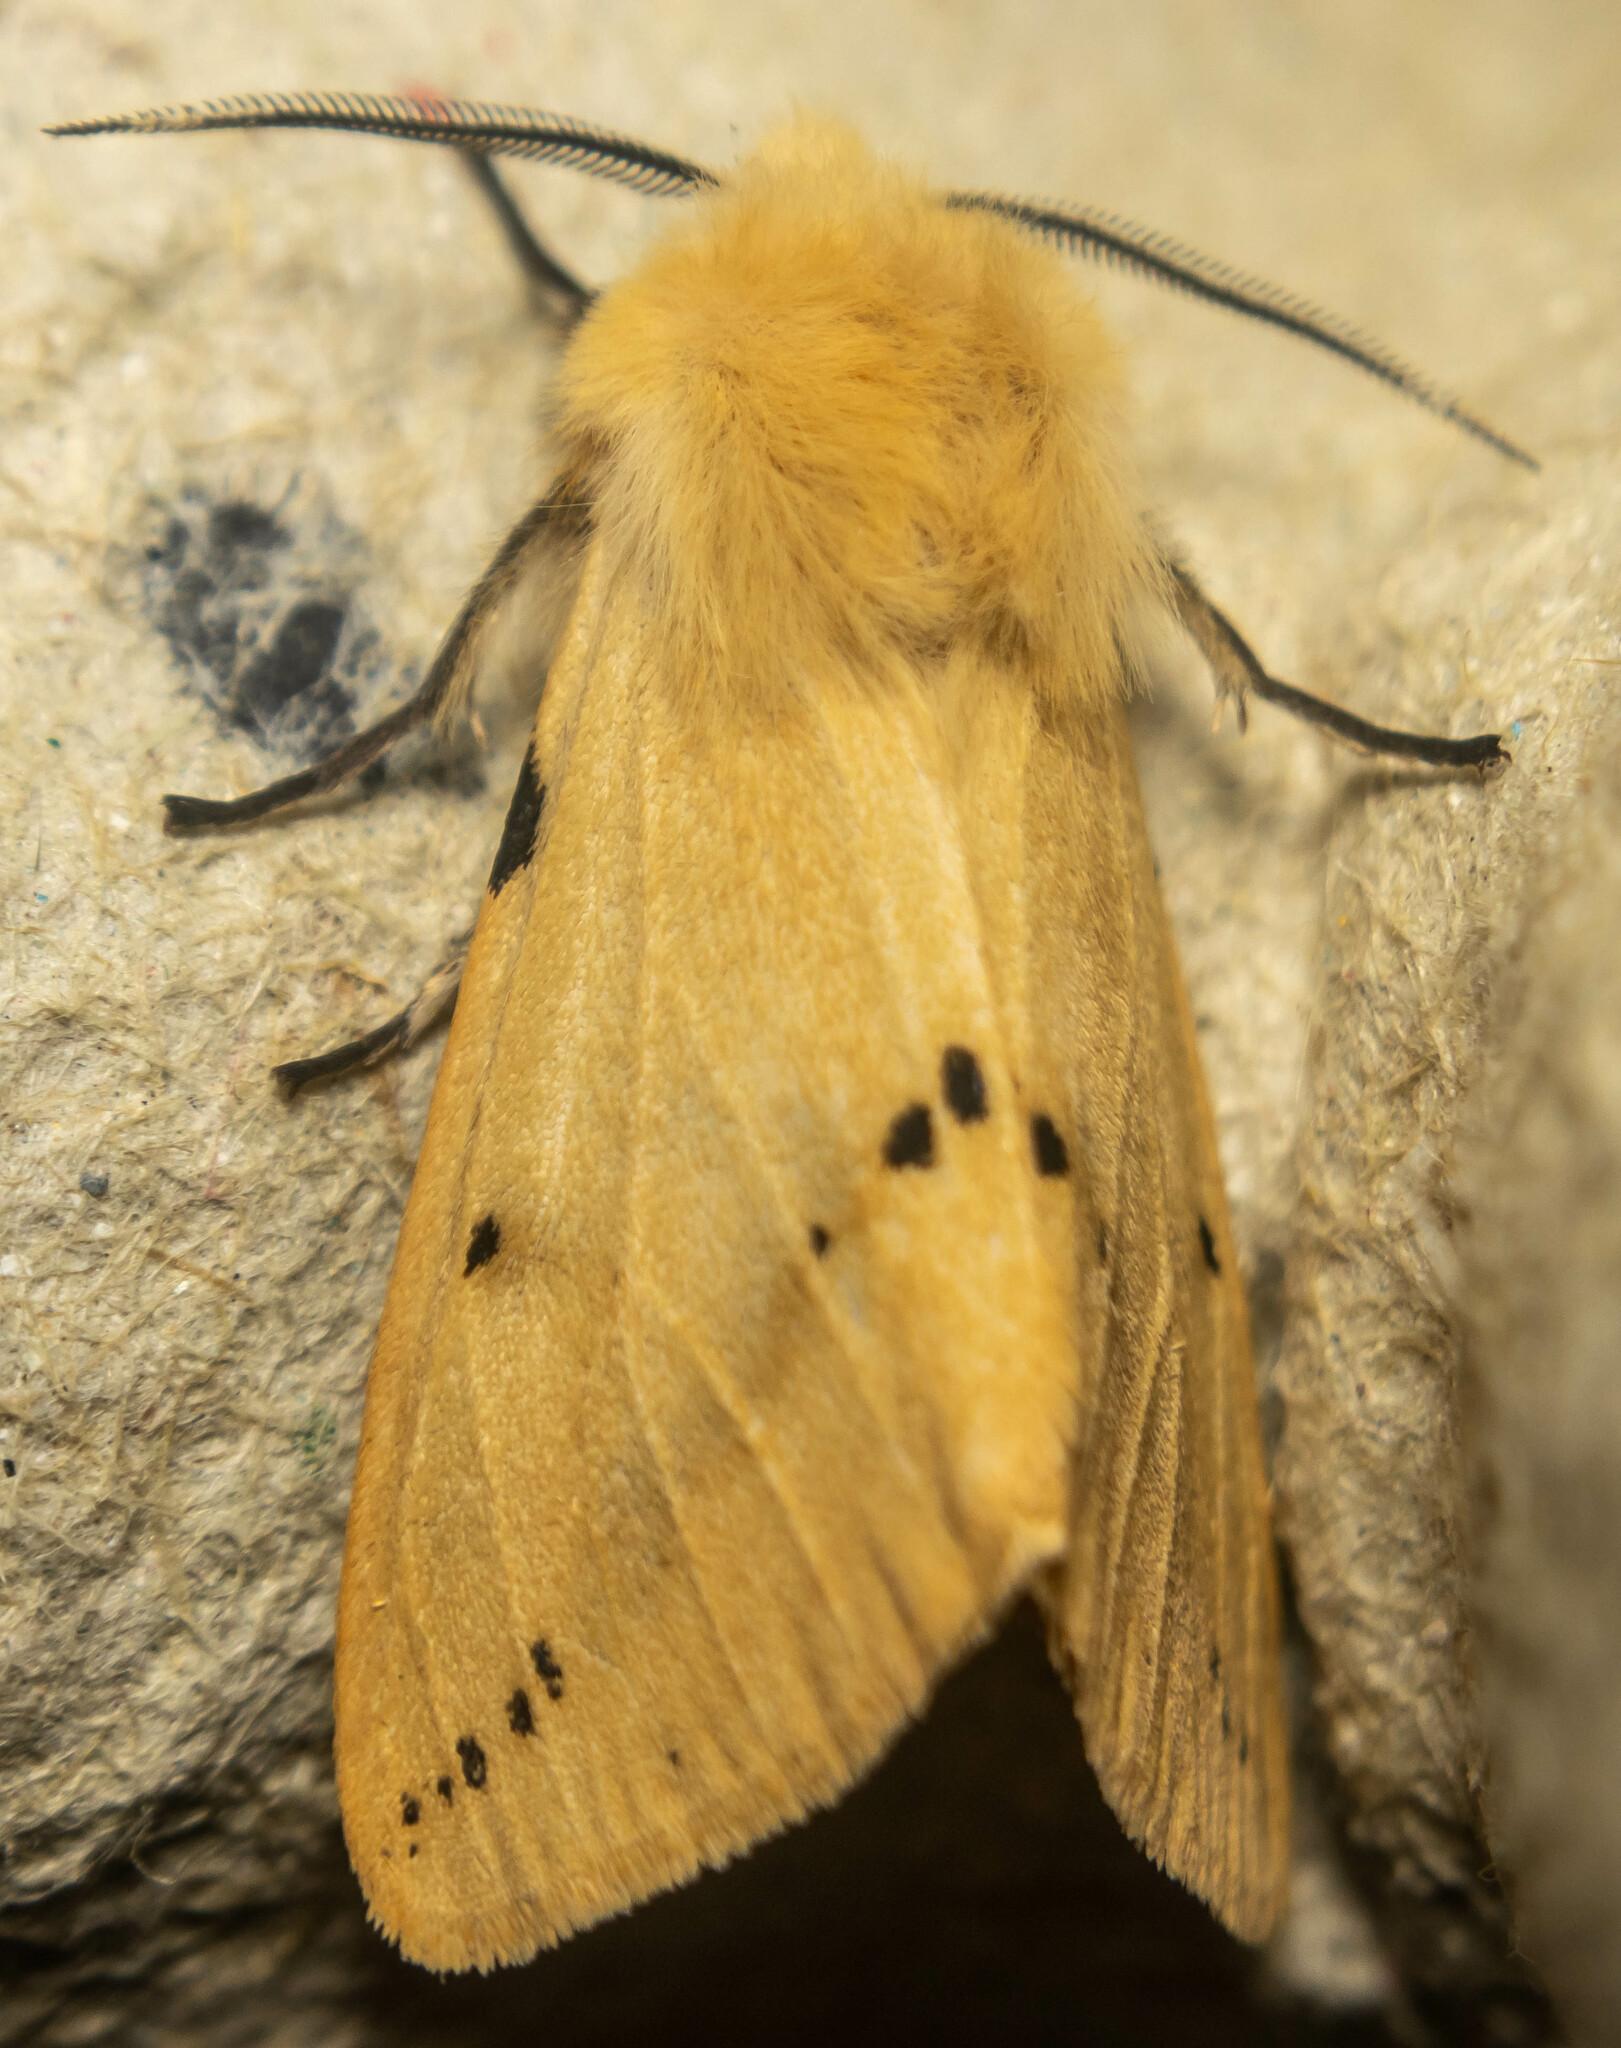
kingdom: Animalia
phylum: Arthropoda
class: Insecta
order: Lepidoptera
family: Erebidae
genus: Spilarctia
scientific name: Spilarctia lutea
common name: Buff ermine
